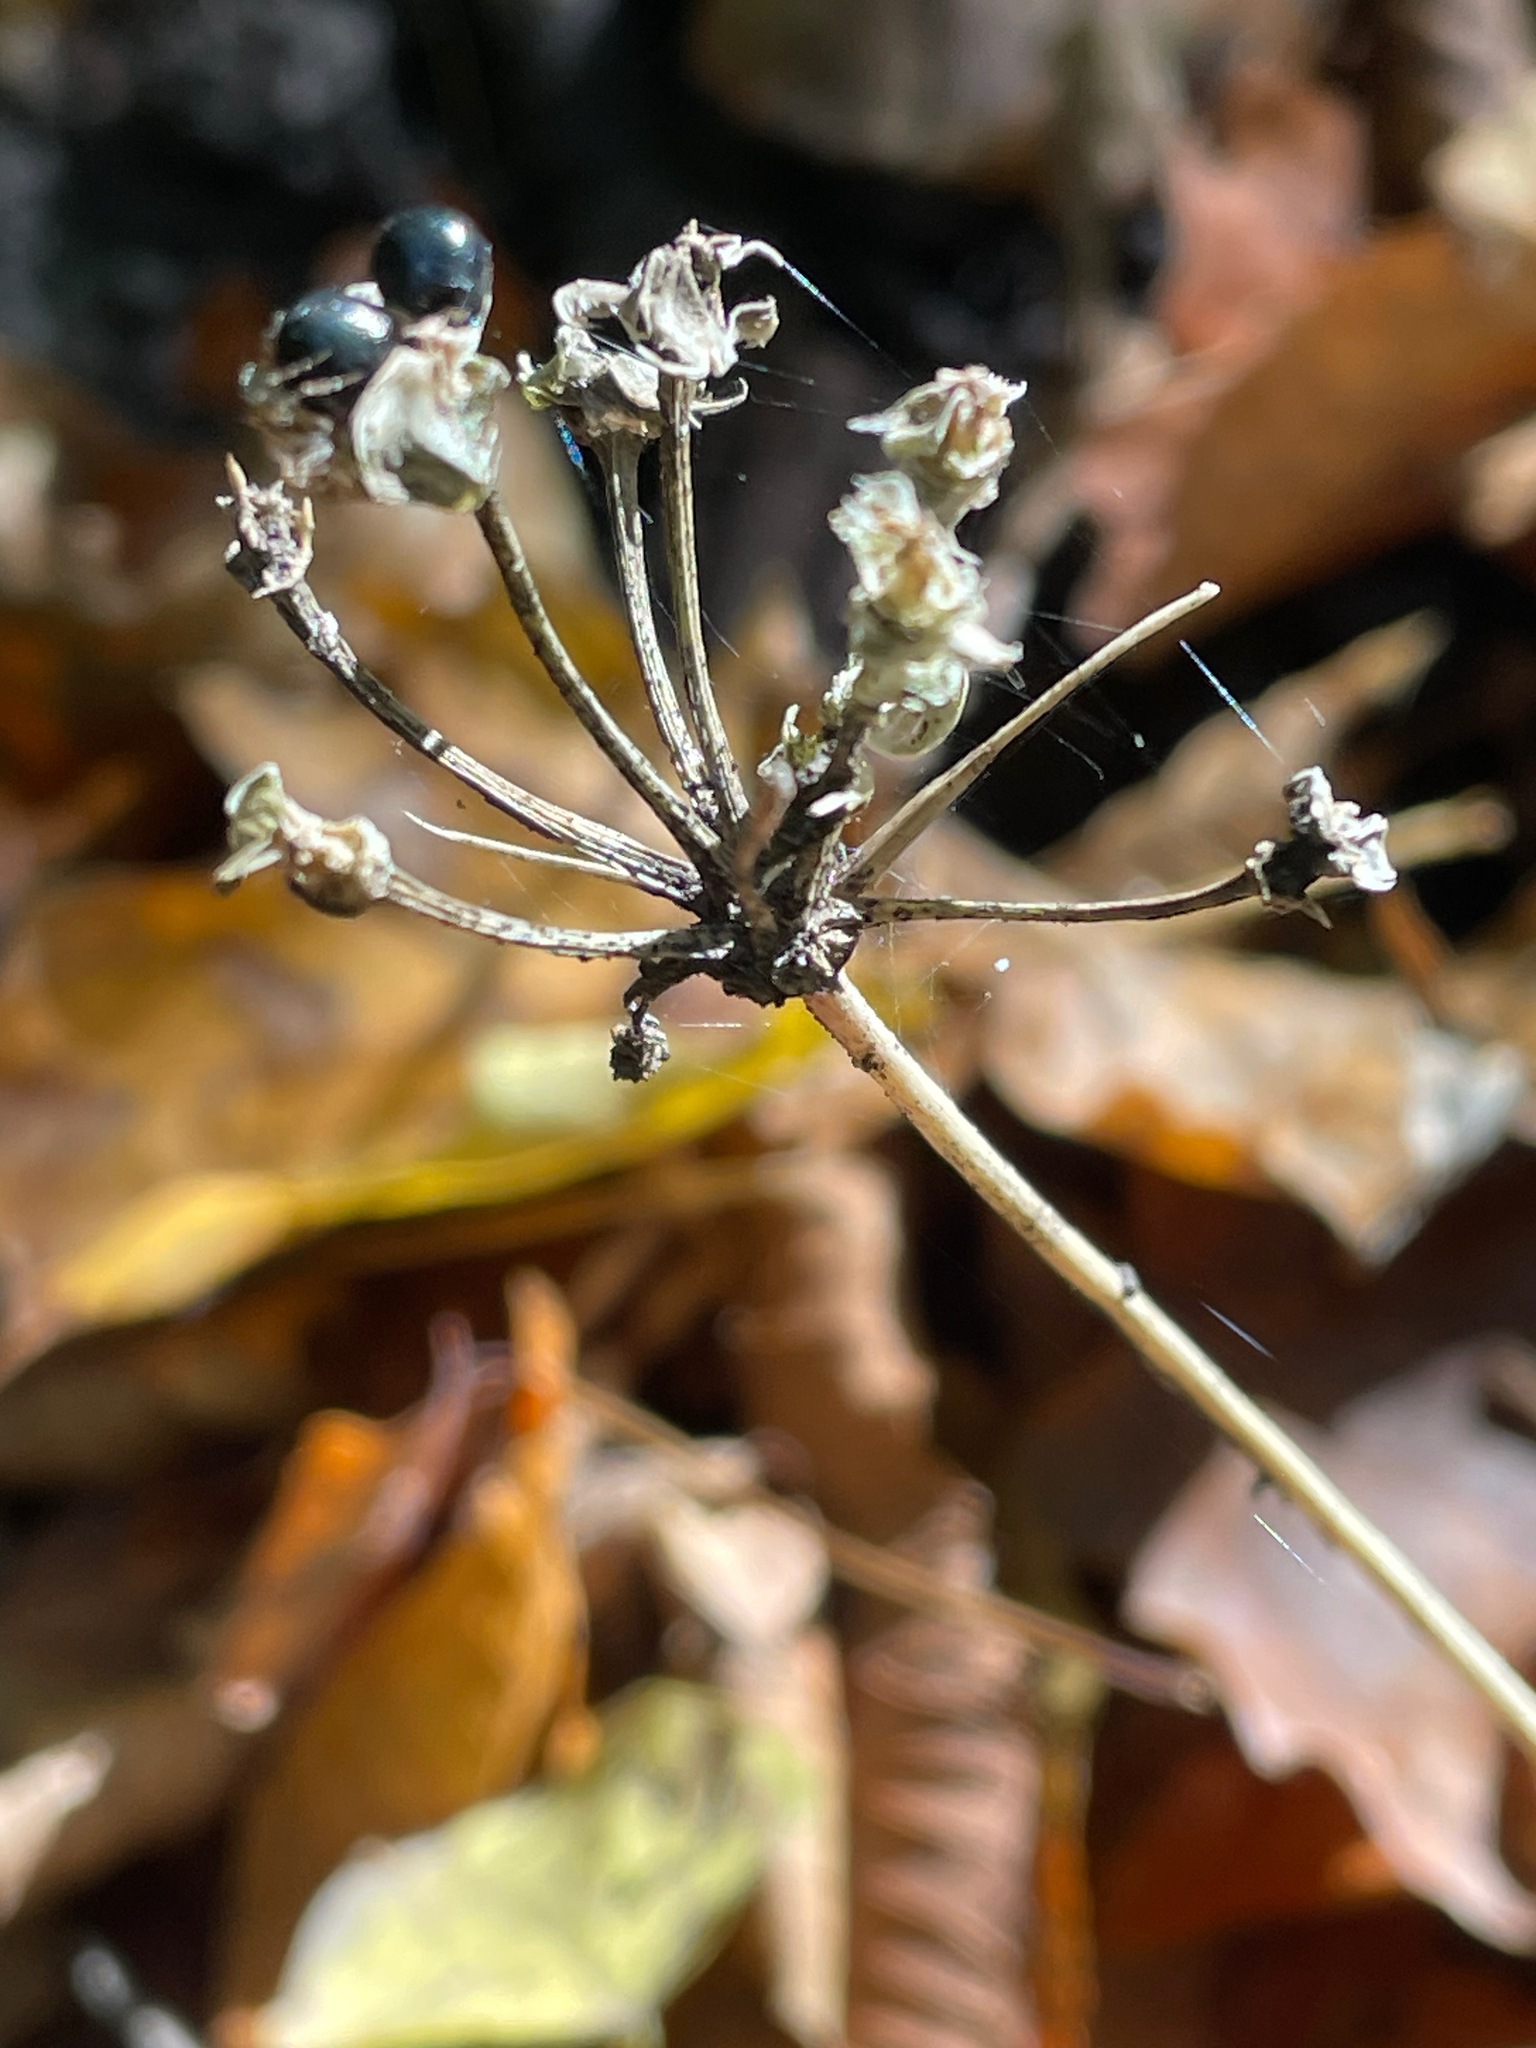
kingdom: Plantae
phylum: Tracheophyta
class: Liliopsida
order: Asparagales
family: Amaryllidaceae
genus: Allium
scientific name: Allium tricoccum
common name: Ramp
